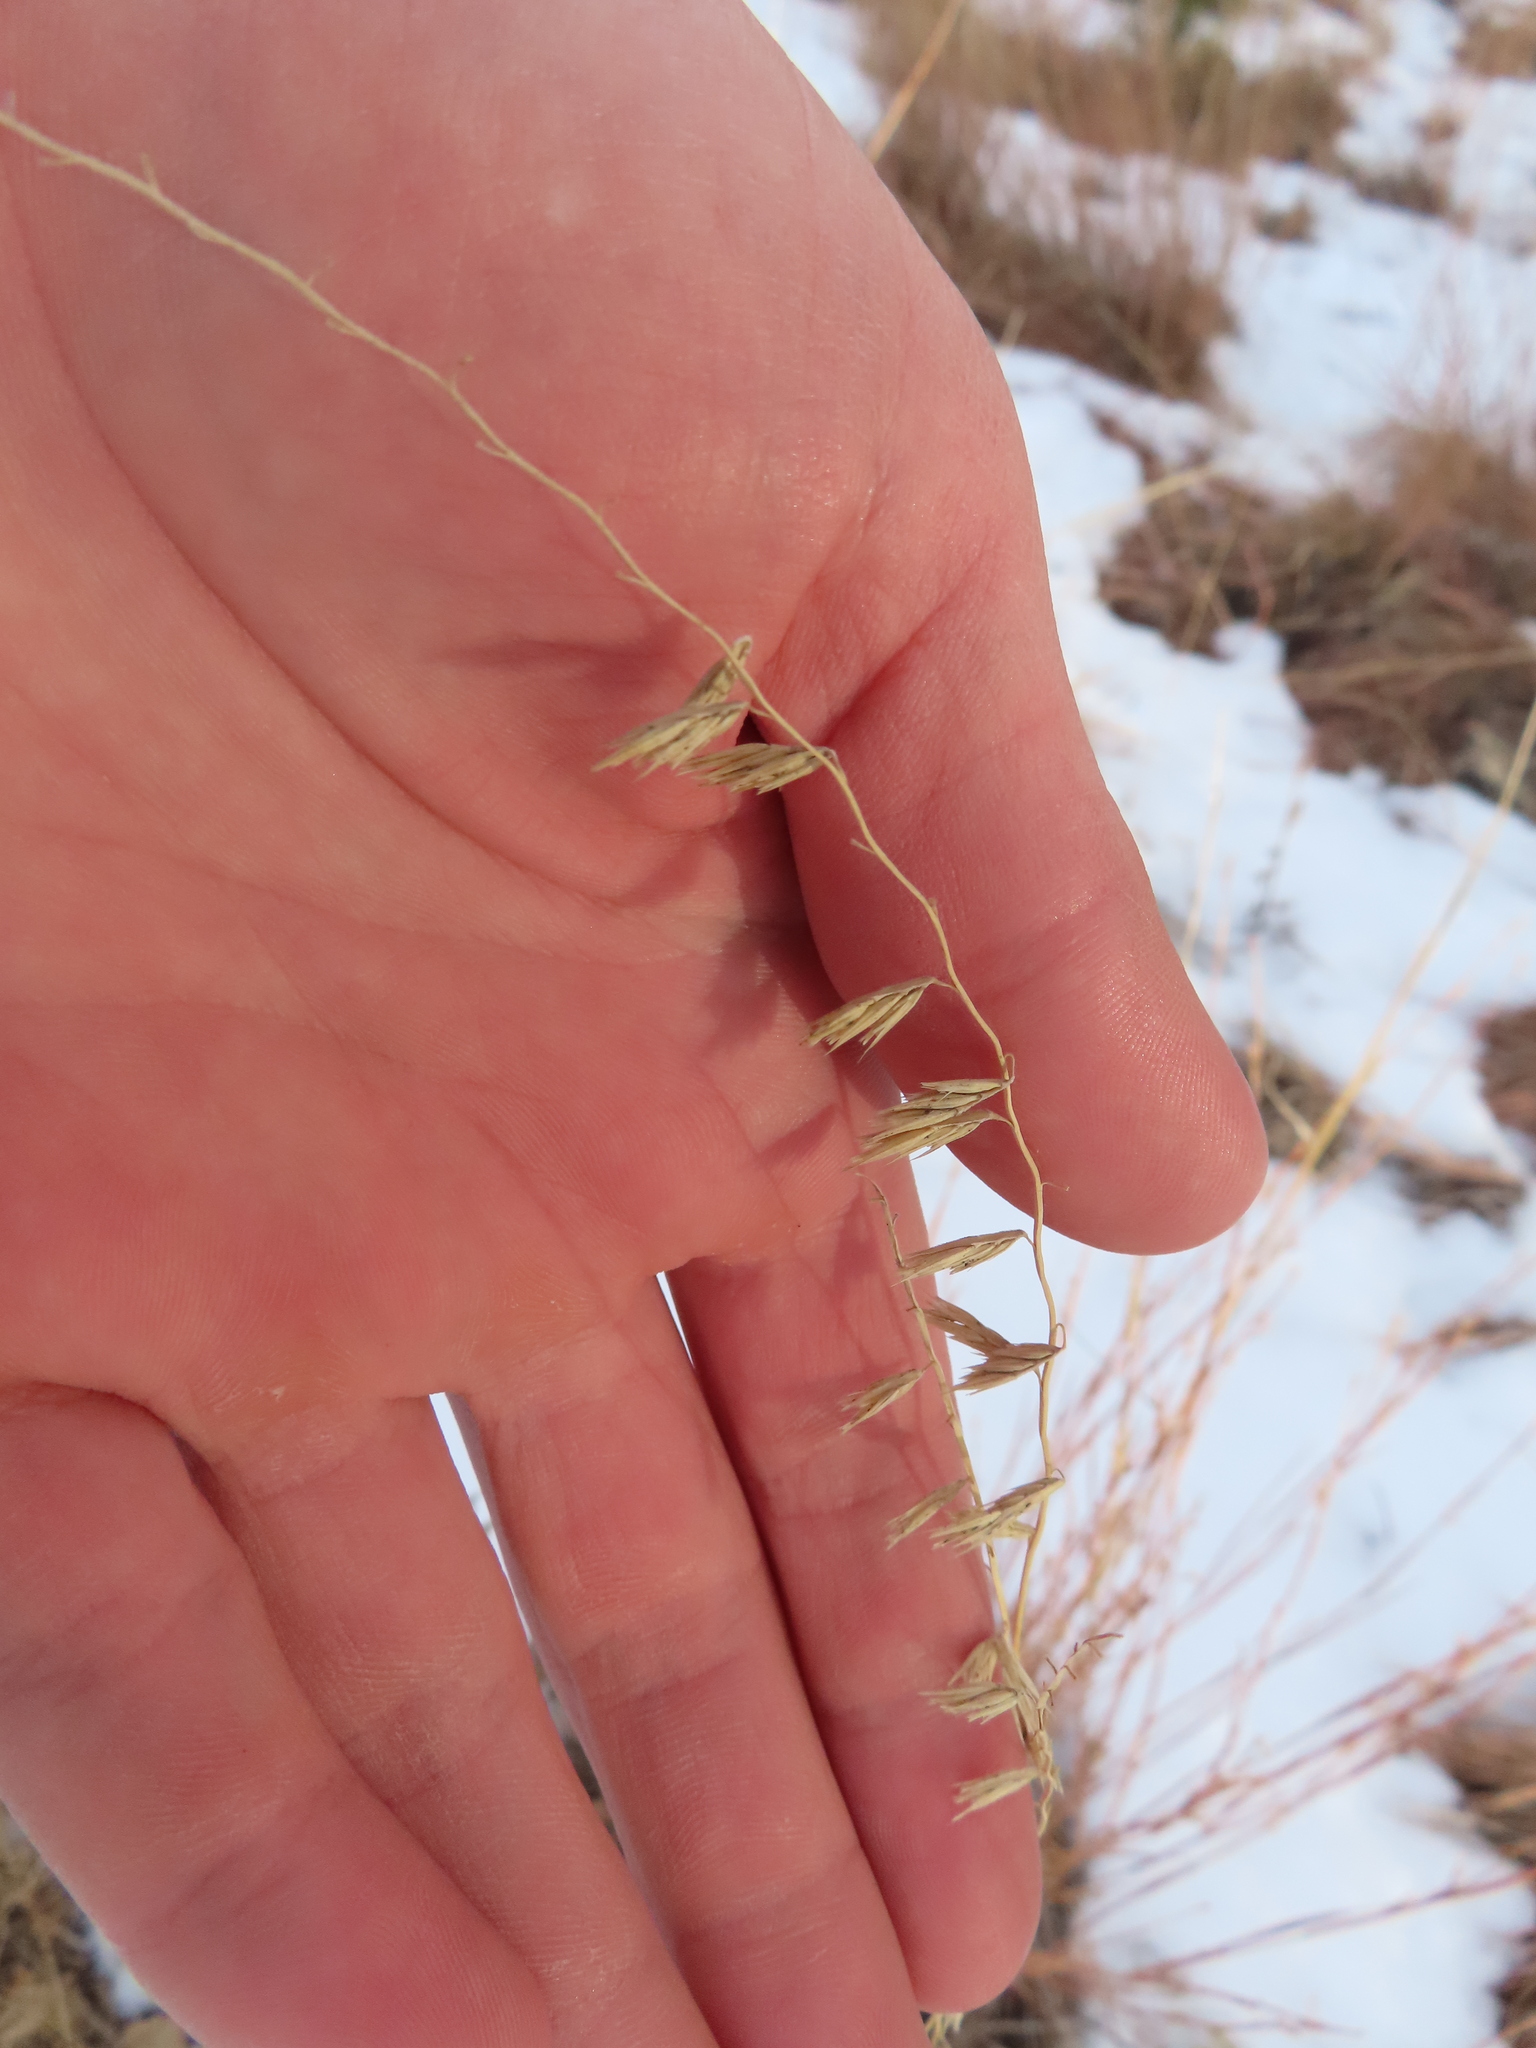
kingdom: Plantae
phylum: Tracheophyta
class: Liliopsida
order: Poales
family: Poaceae
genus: Bouteloua
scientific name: Bouteloua curtipendula
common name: Side-oats grama
